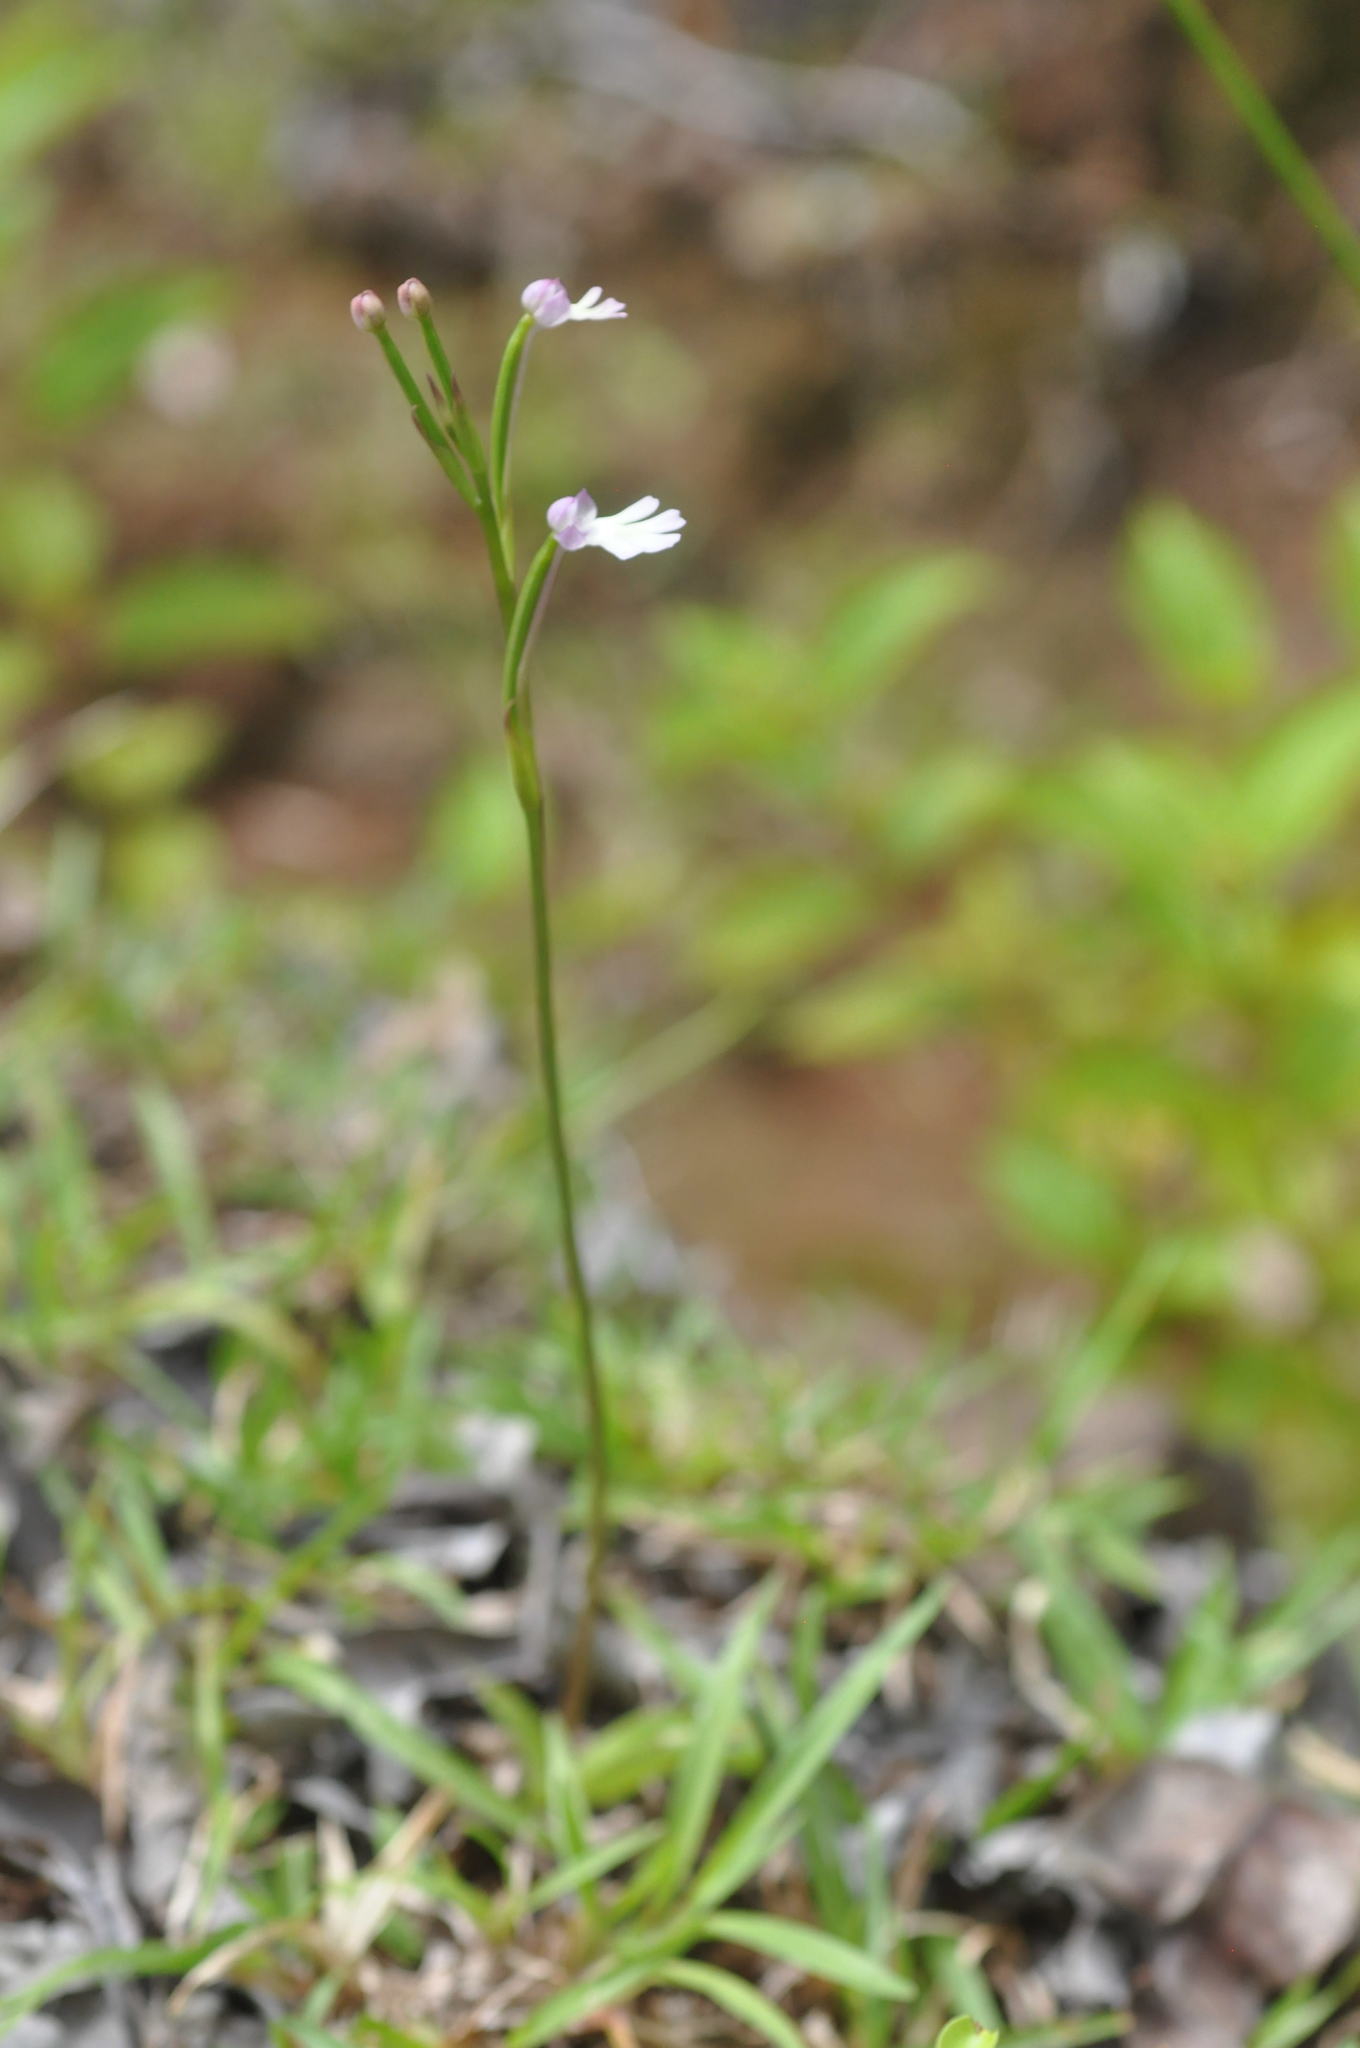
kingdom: Plantae
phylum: Tracheophyta
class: Liliopsida
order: Asparagales
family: Orchidaceae
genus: Cynorkis
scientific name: Cynorkis fastigiata
